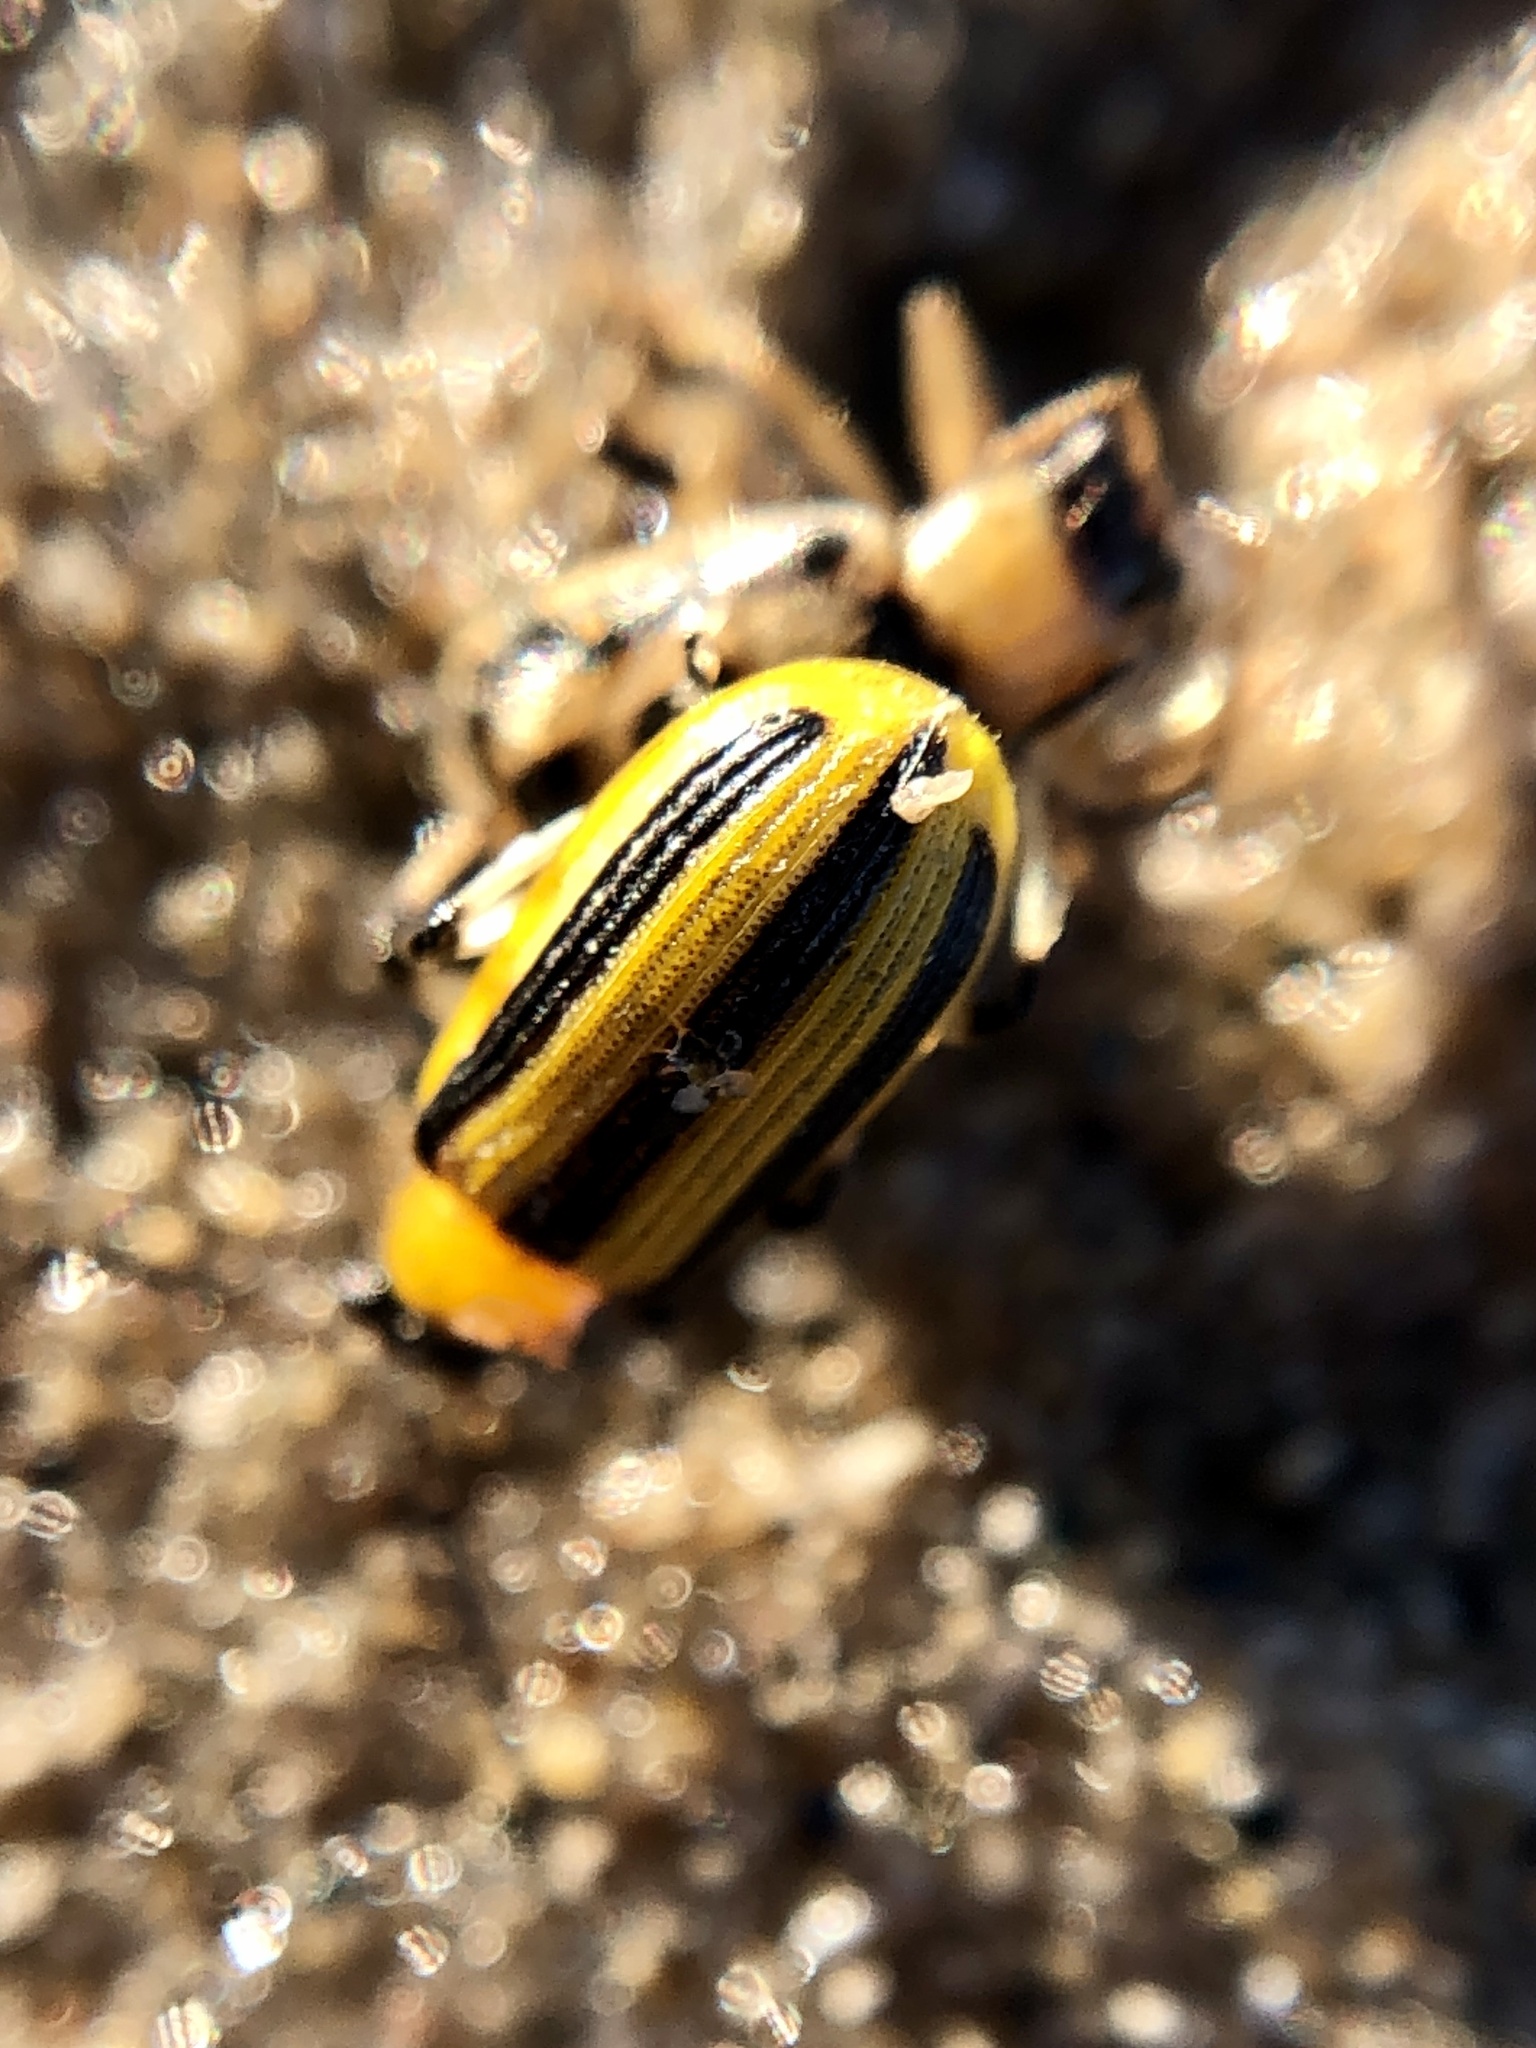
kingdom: Animalia
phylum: Arthropoda
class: Insecta
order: Coleoptera
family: Chrysomelidae
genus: Acalymma
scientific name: Acalymma vittatum
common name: Striped cucumber beetle
